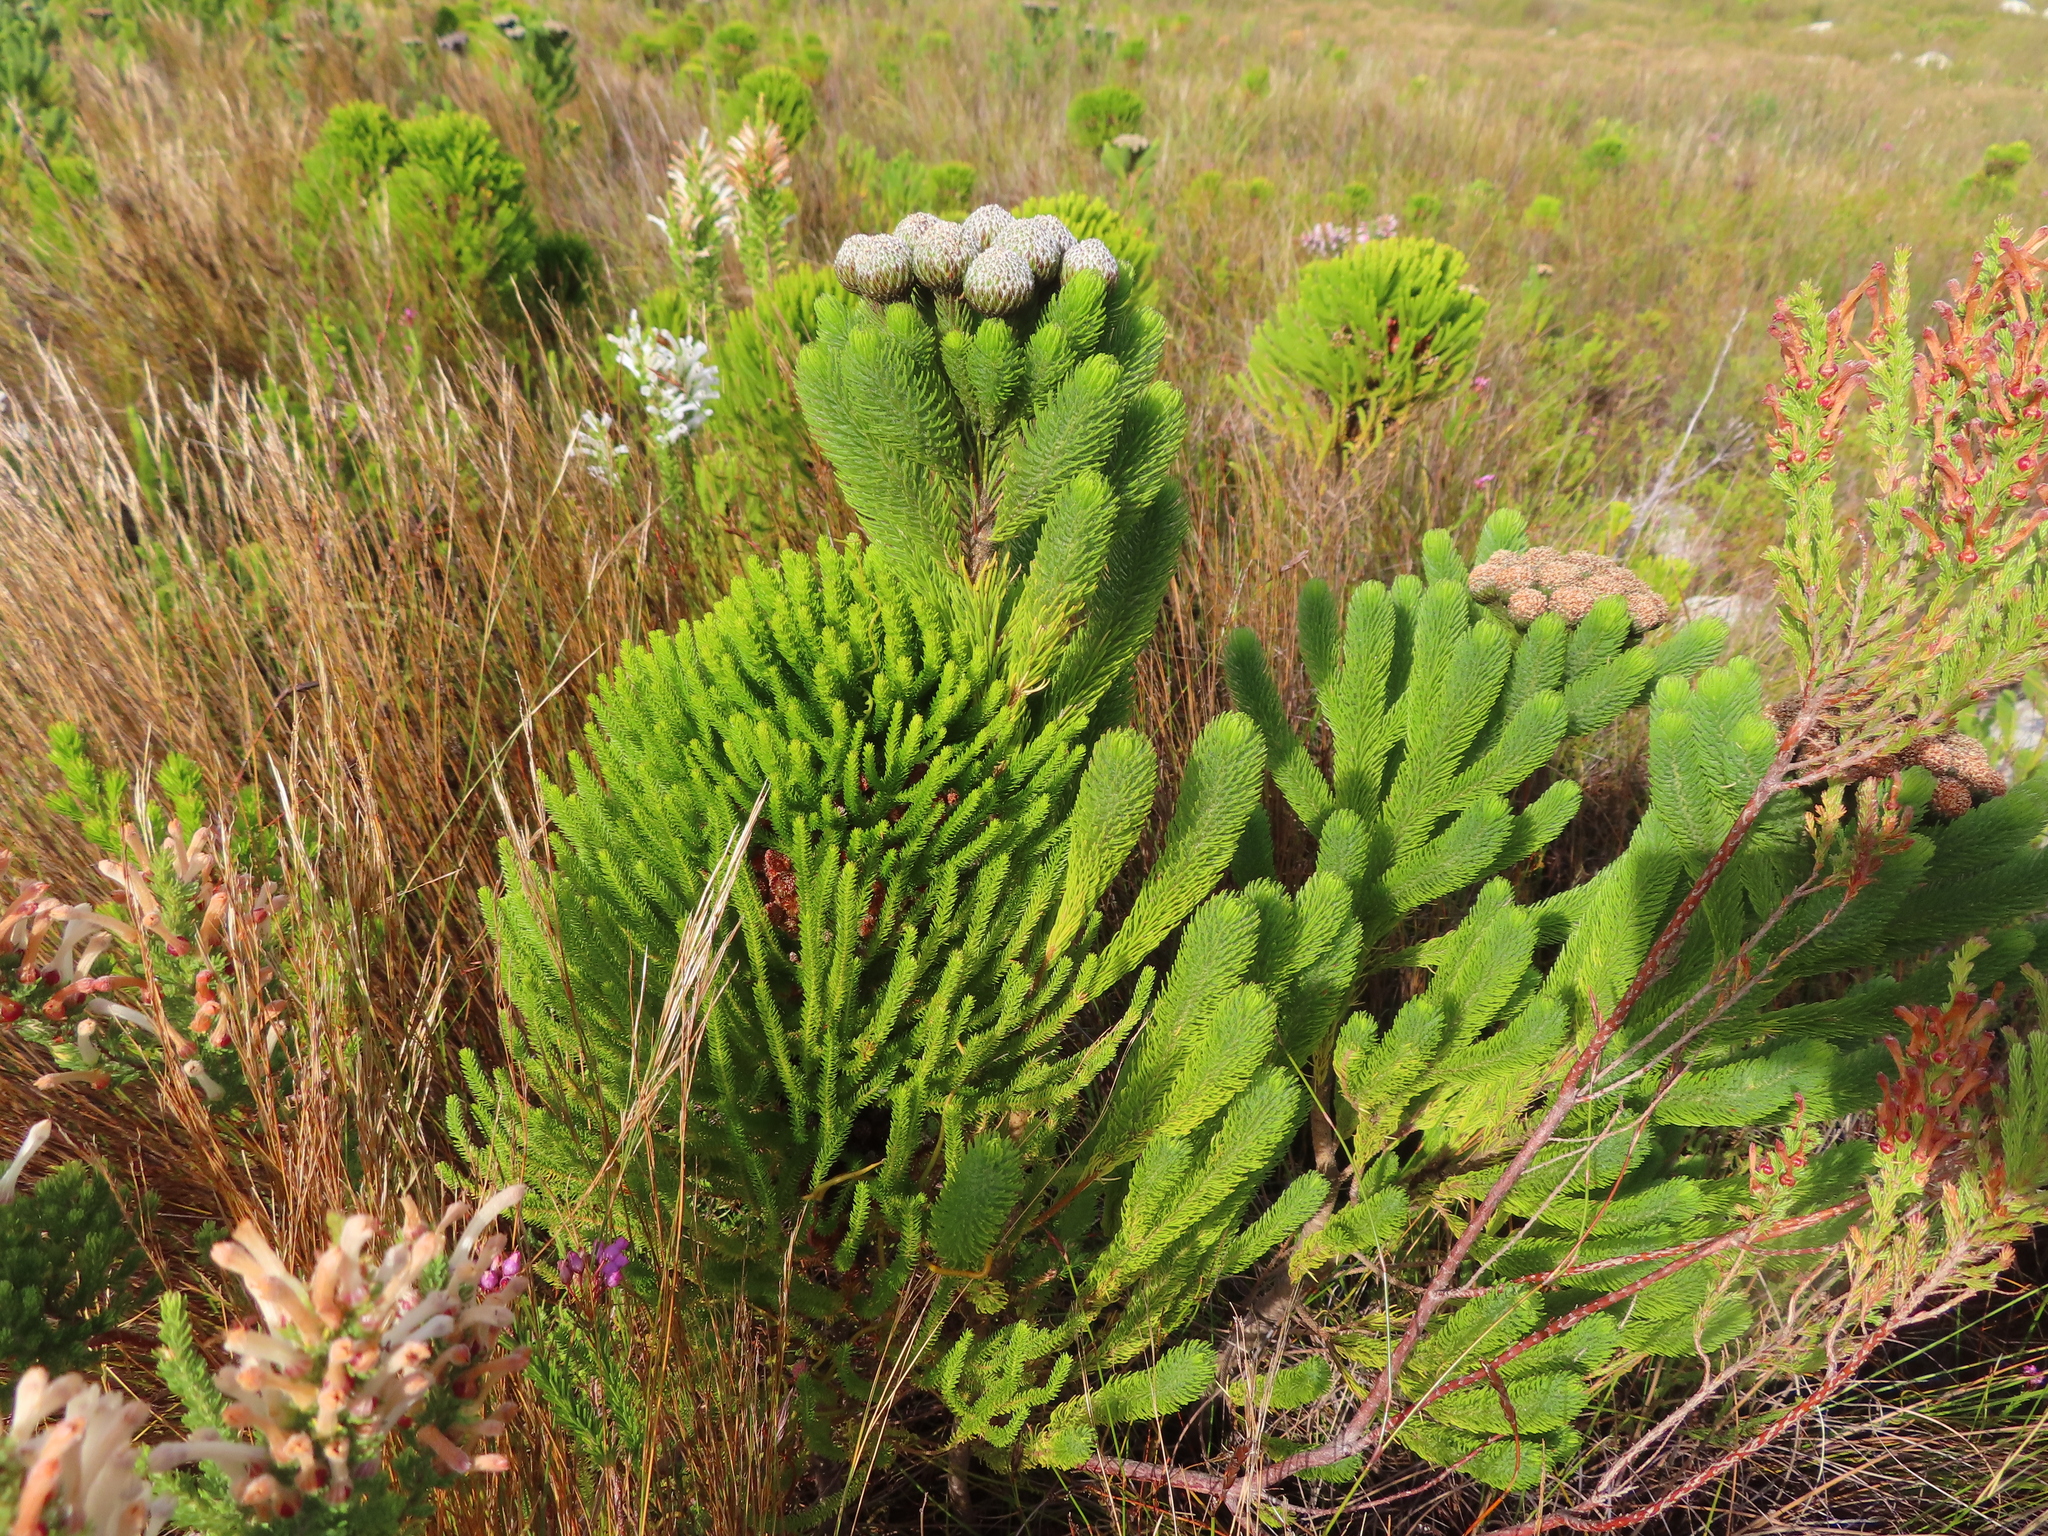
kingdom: Plantae
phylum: Tracheophyta
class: Magnoliopsida
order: Bruniales
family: Bruniaceae
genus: Berzelia
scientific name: Berzelia albiflora
